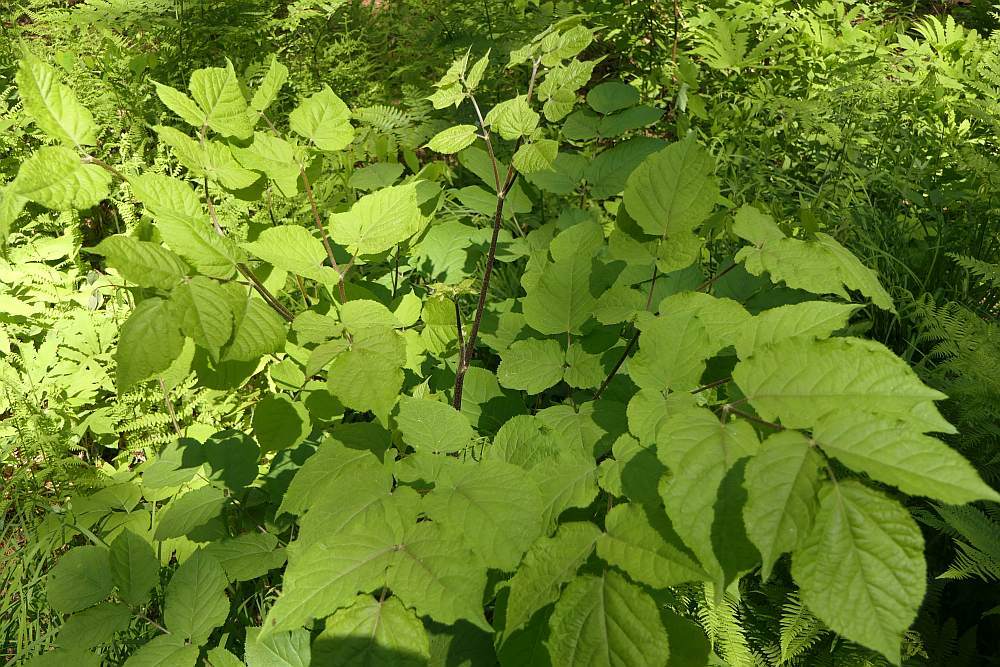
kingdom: Plantae
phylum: Tracheophyta
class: Magnoliopsida
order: Apiales
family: Araliaceae
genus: Aralia
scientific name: Aralia racemosa
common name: American-spikenard
